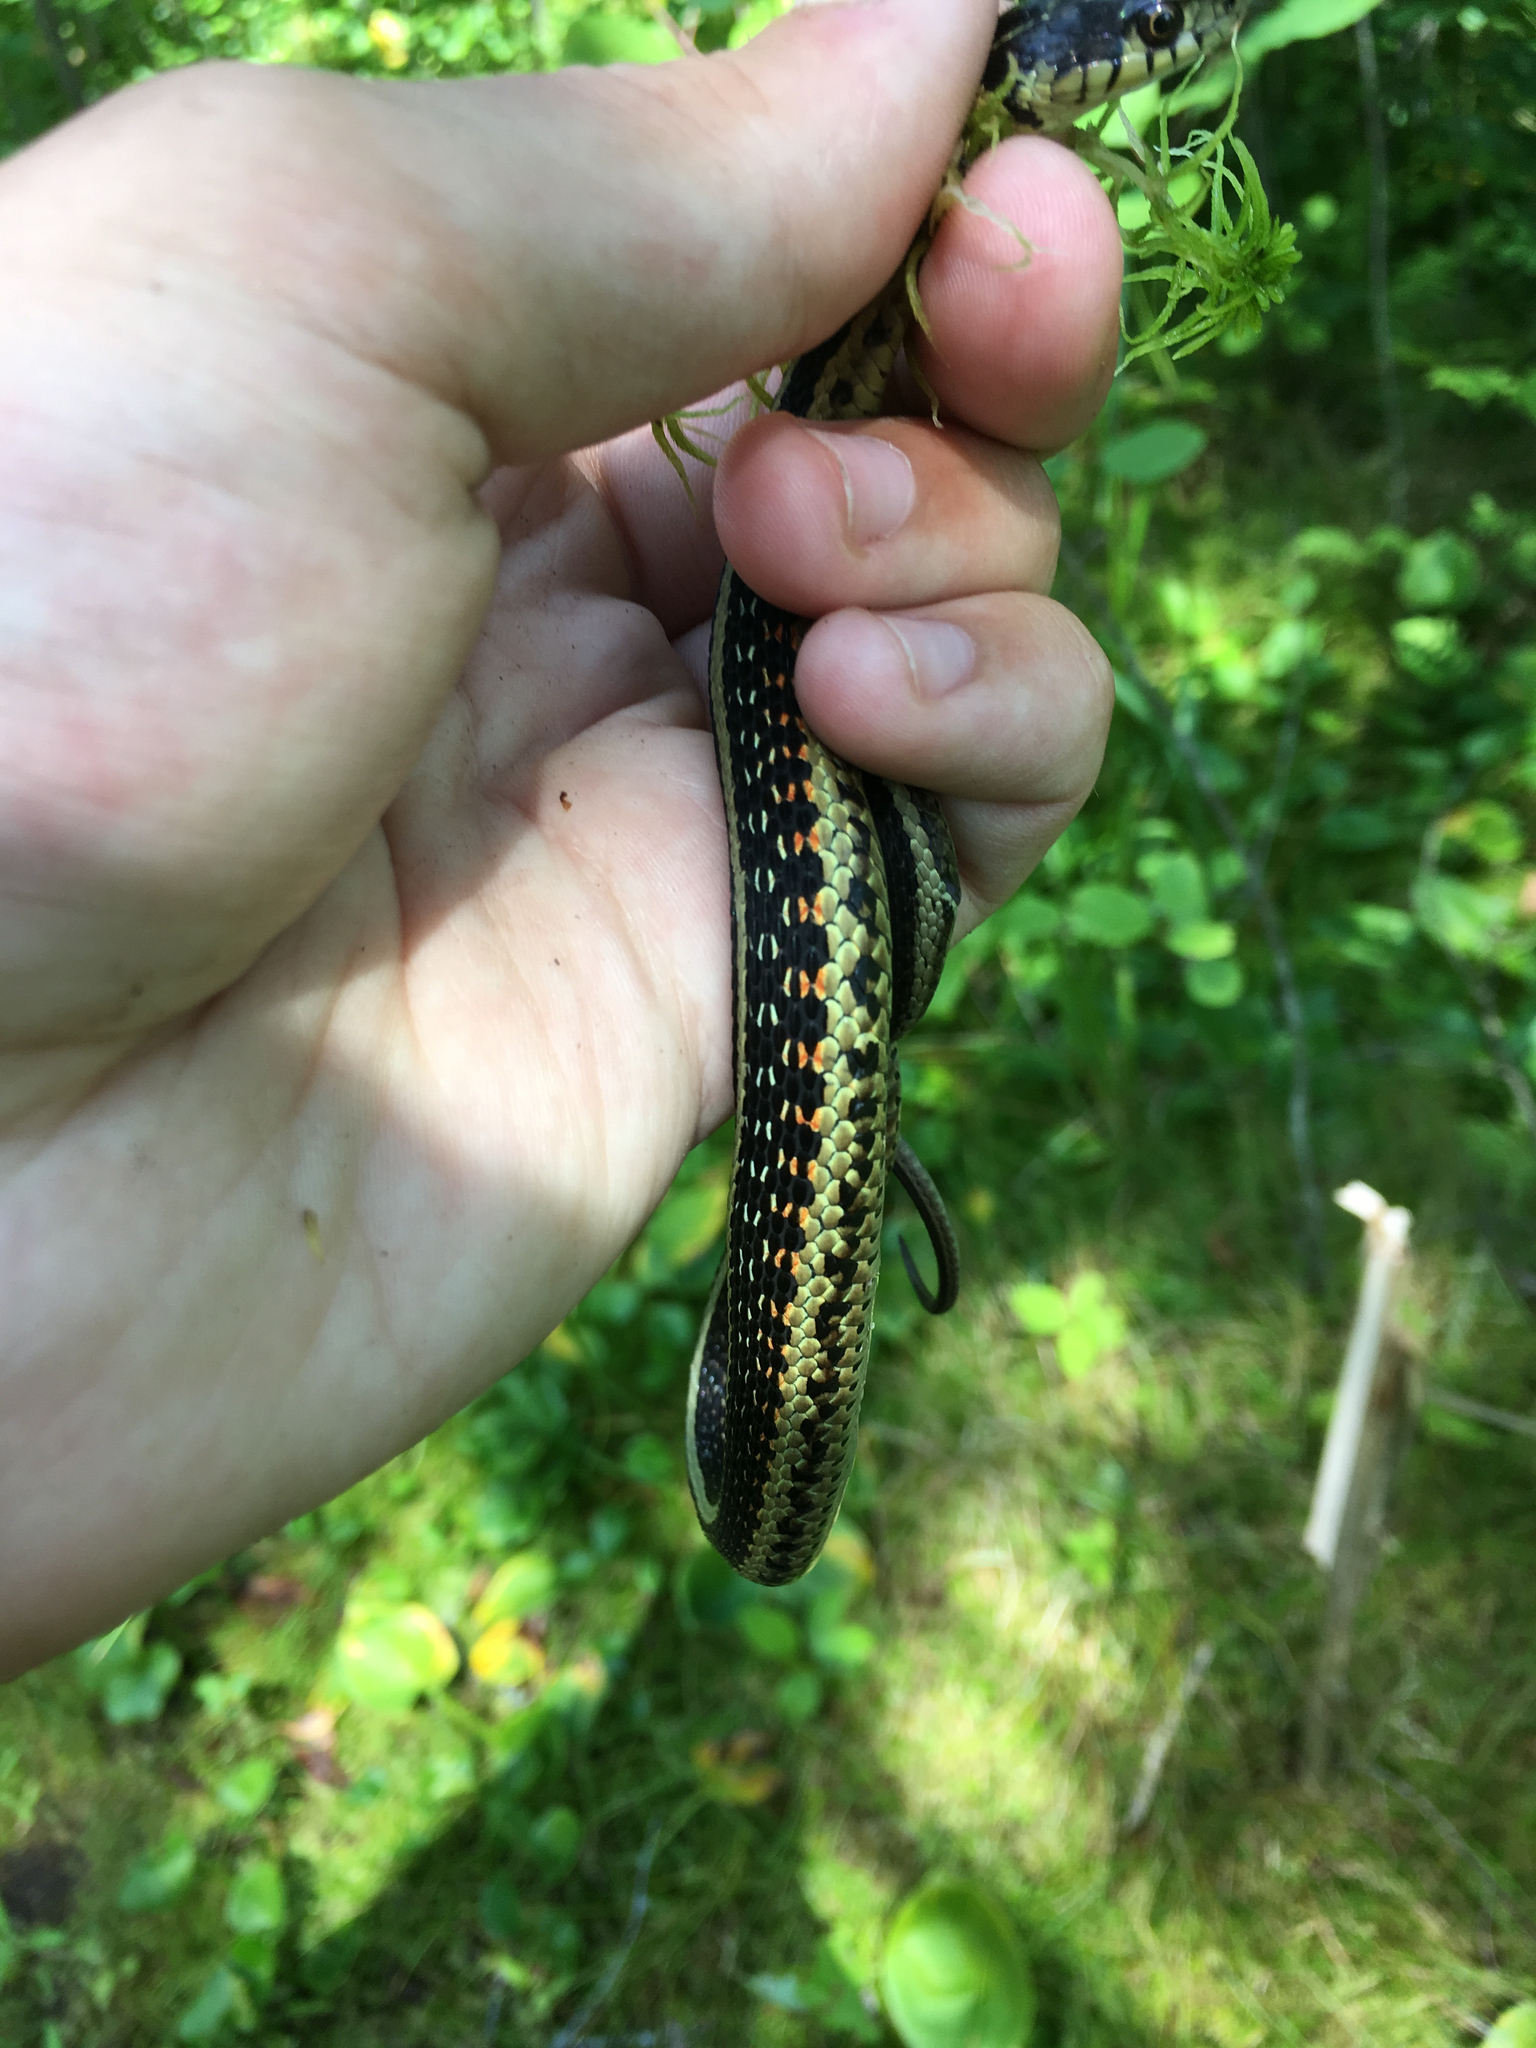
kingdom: Animalia
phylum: Chordata
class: Squamata
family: Colubridae
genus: Thamnophis
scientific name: Thamnophis sirtalis
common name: Common garter snake
